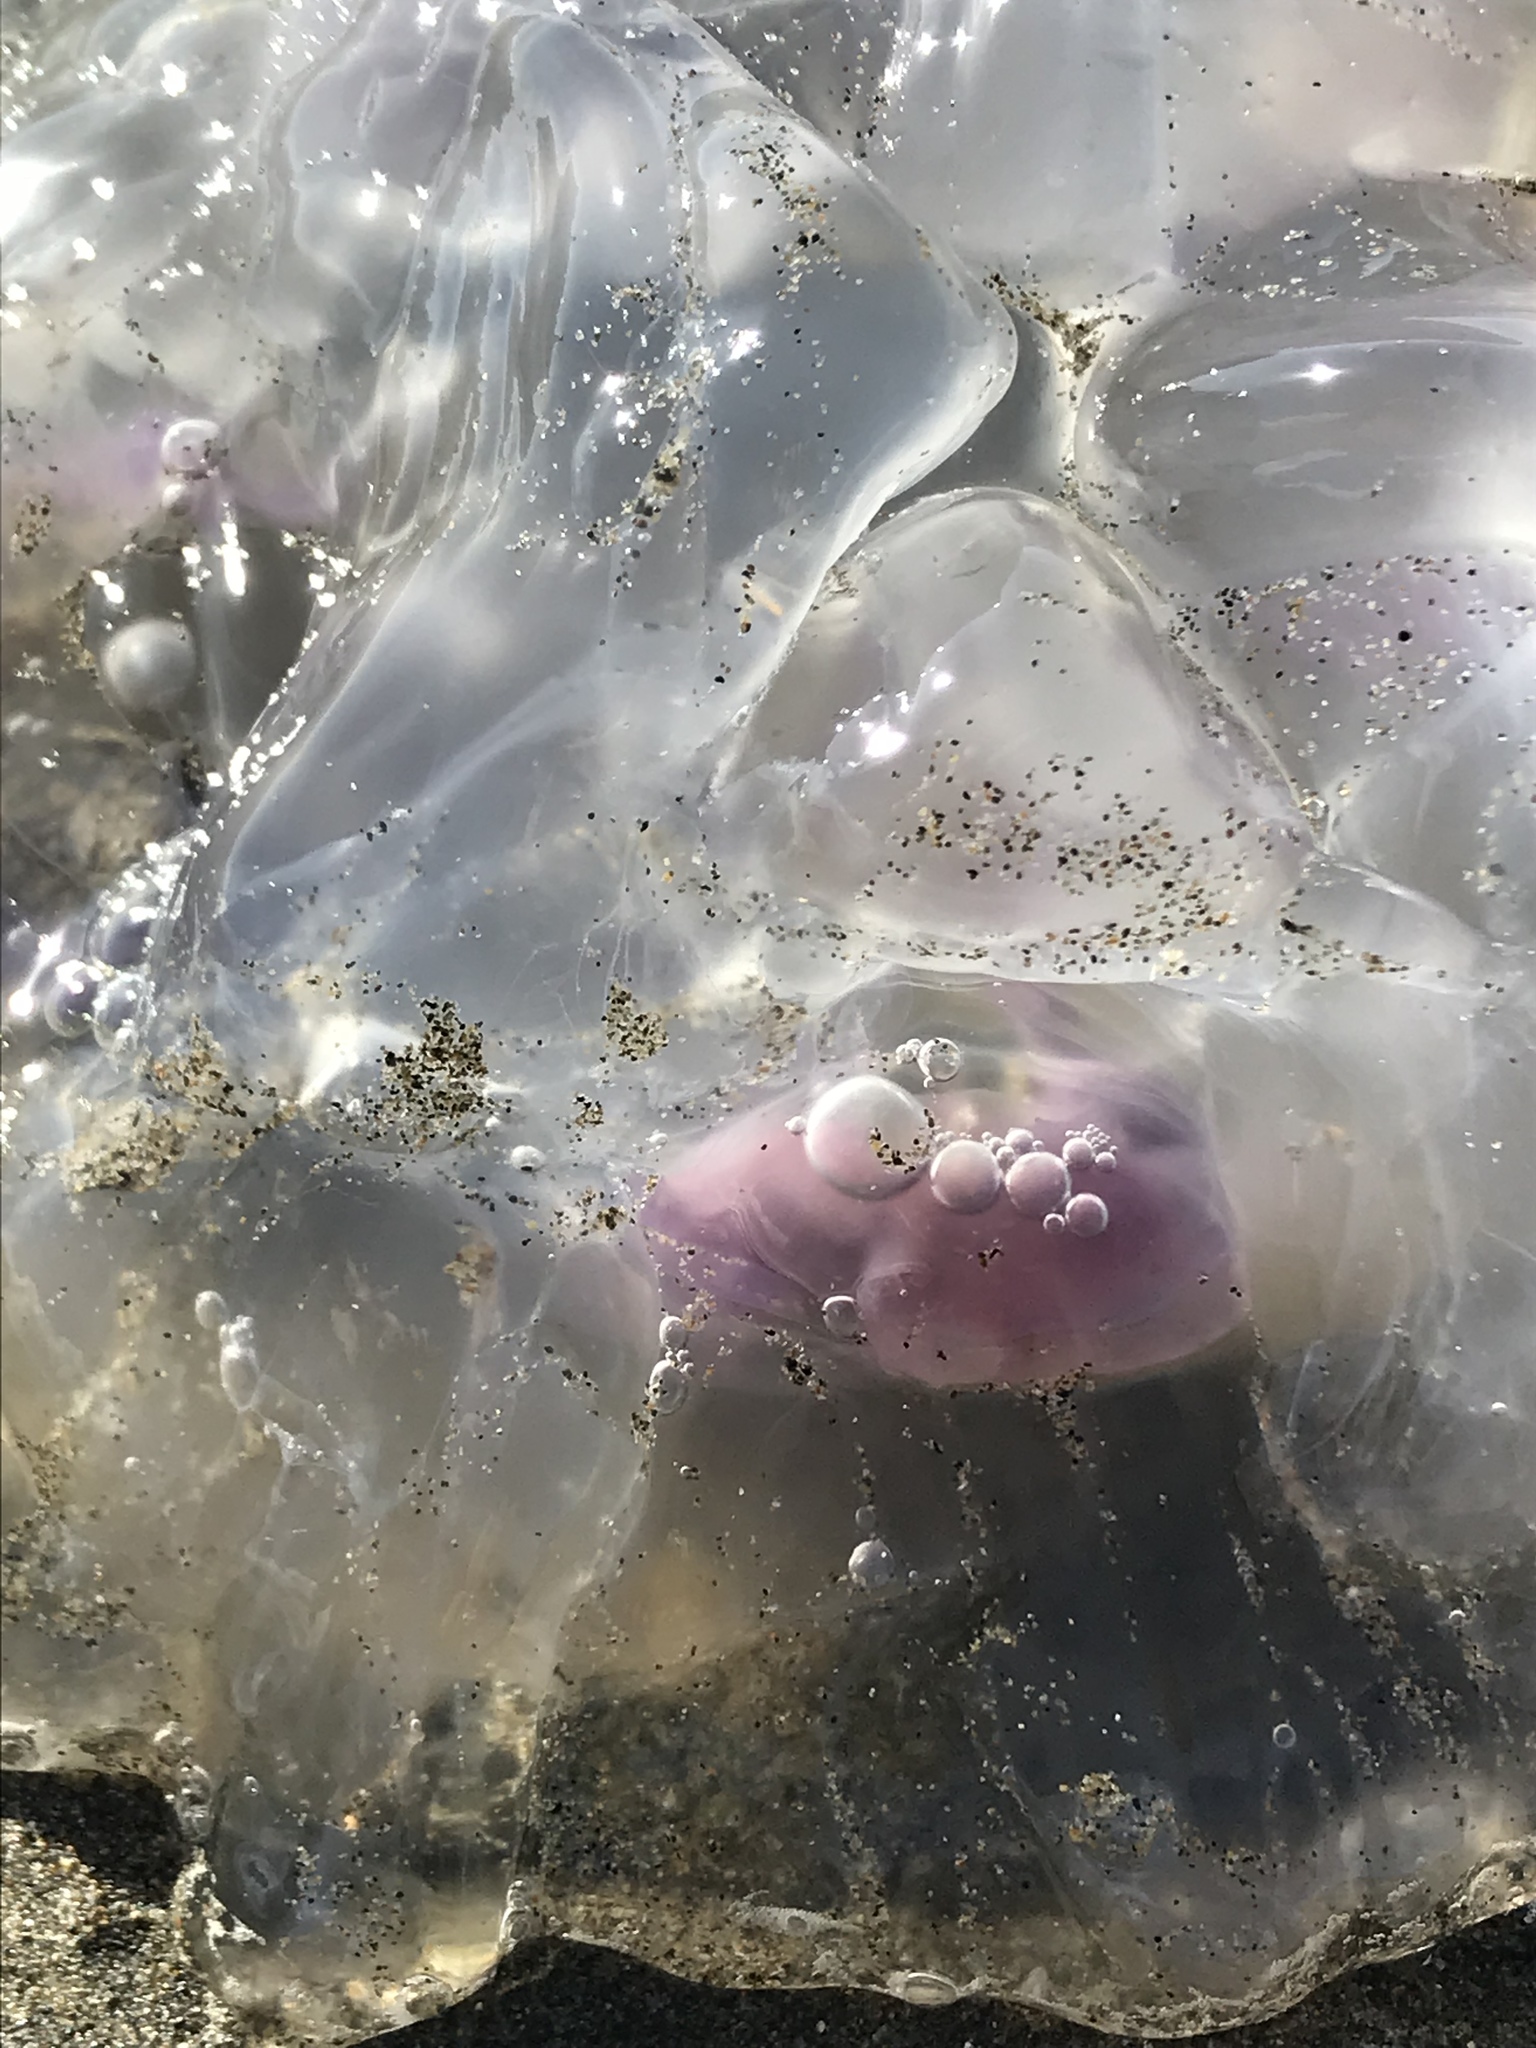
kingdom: Animalia
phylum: Cnidaria
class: Scyphozoa
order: Semaeostomeae
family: Ulmaridae
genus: Aurelia
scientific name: Aurelia labiata
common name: Pacific moon jelly
